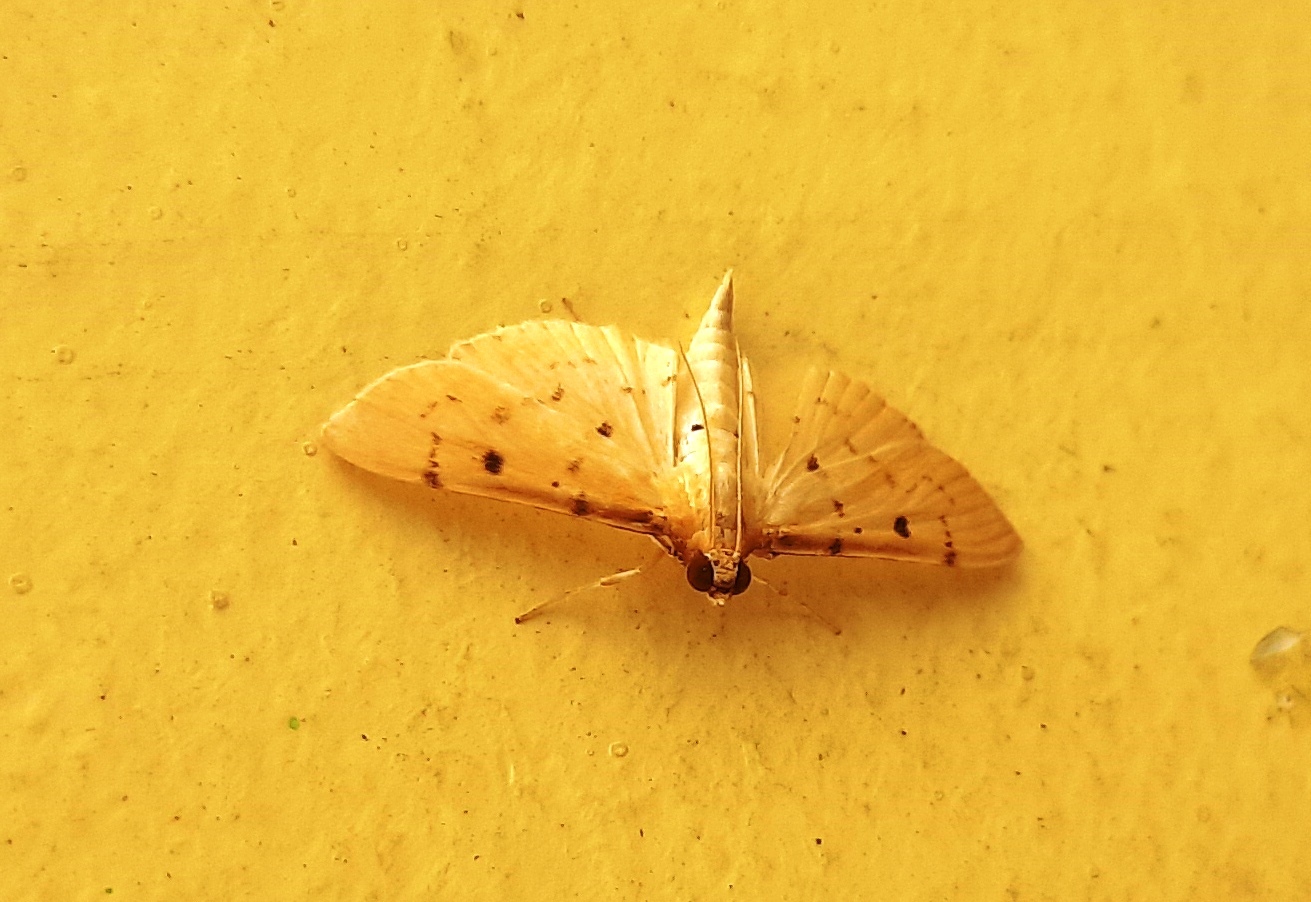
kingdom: Animalia
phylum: Arthropoda
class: Insecta
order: Lepidoptera
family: Crambidae
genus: Herpetogramma
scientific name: Herpetogramma basalis
